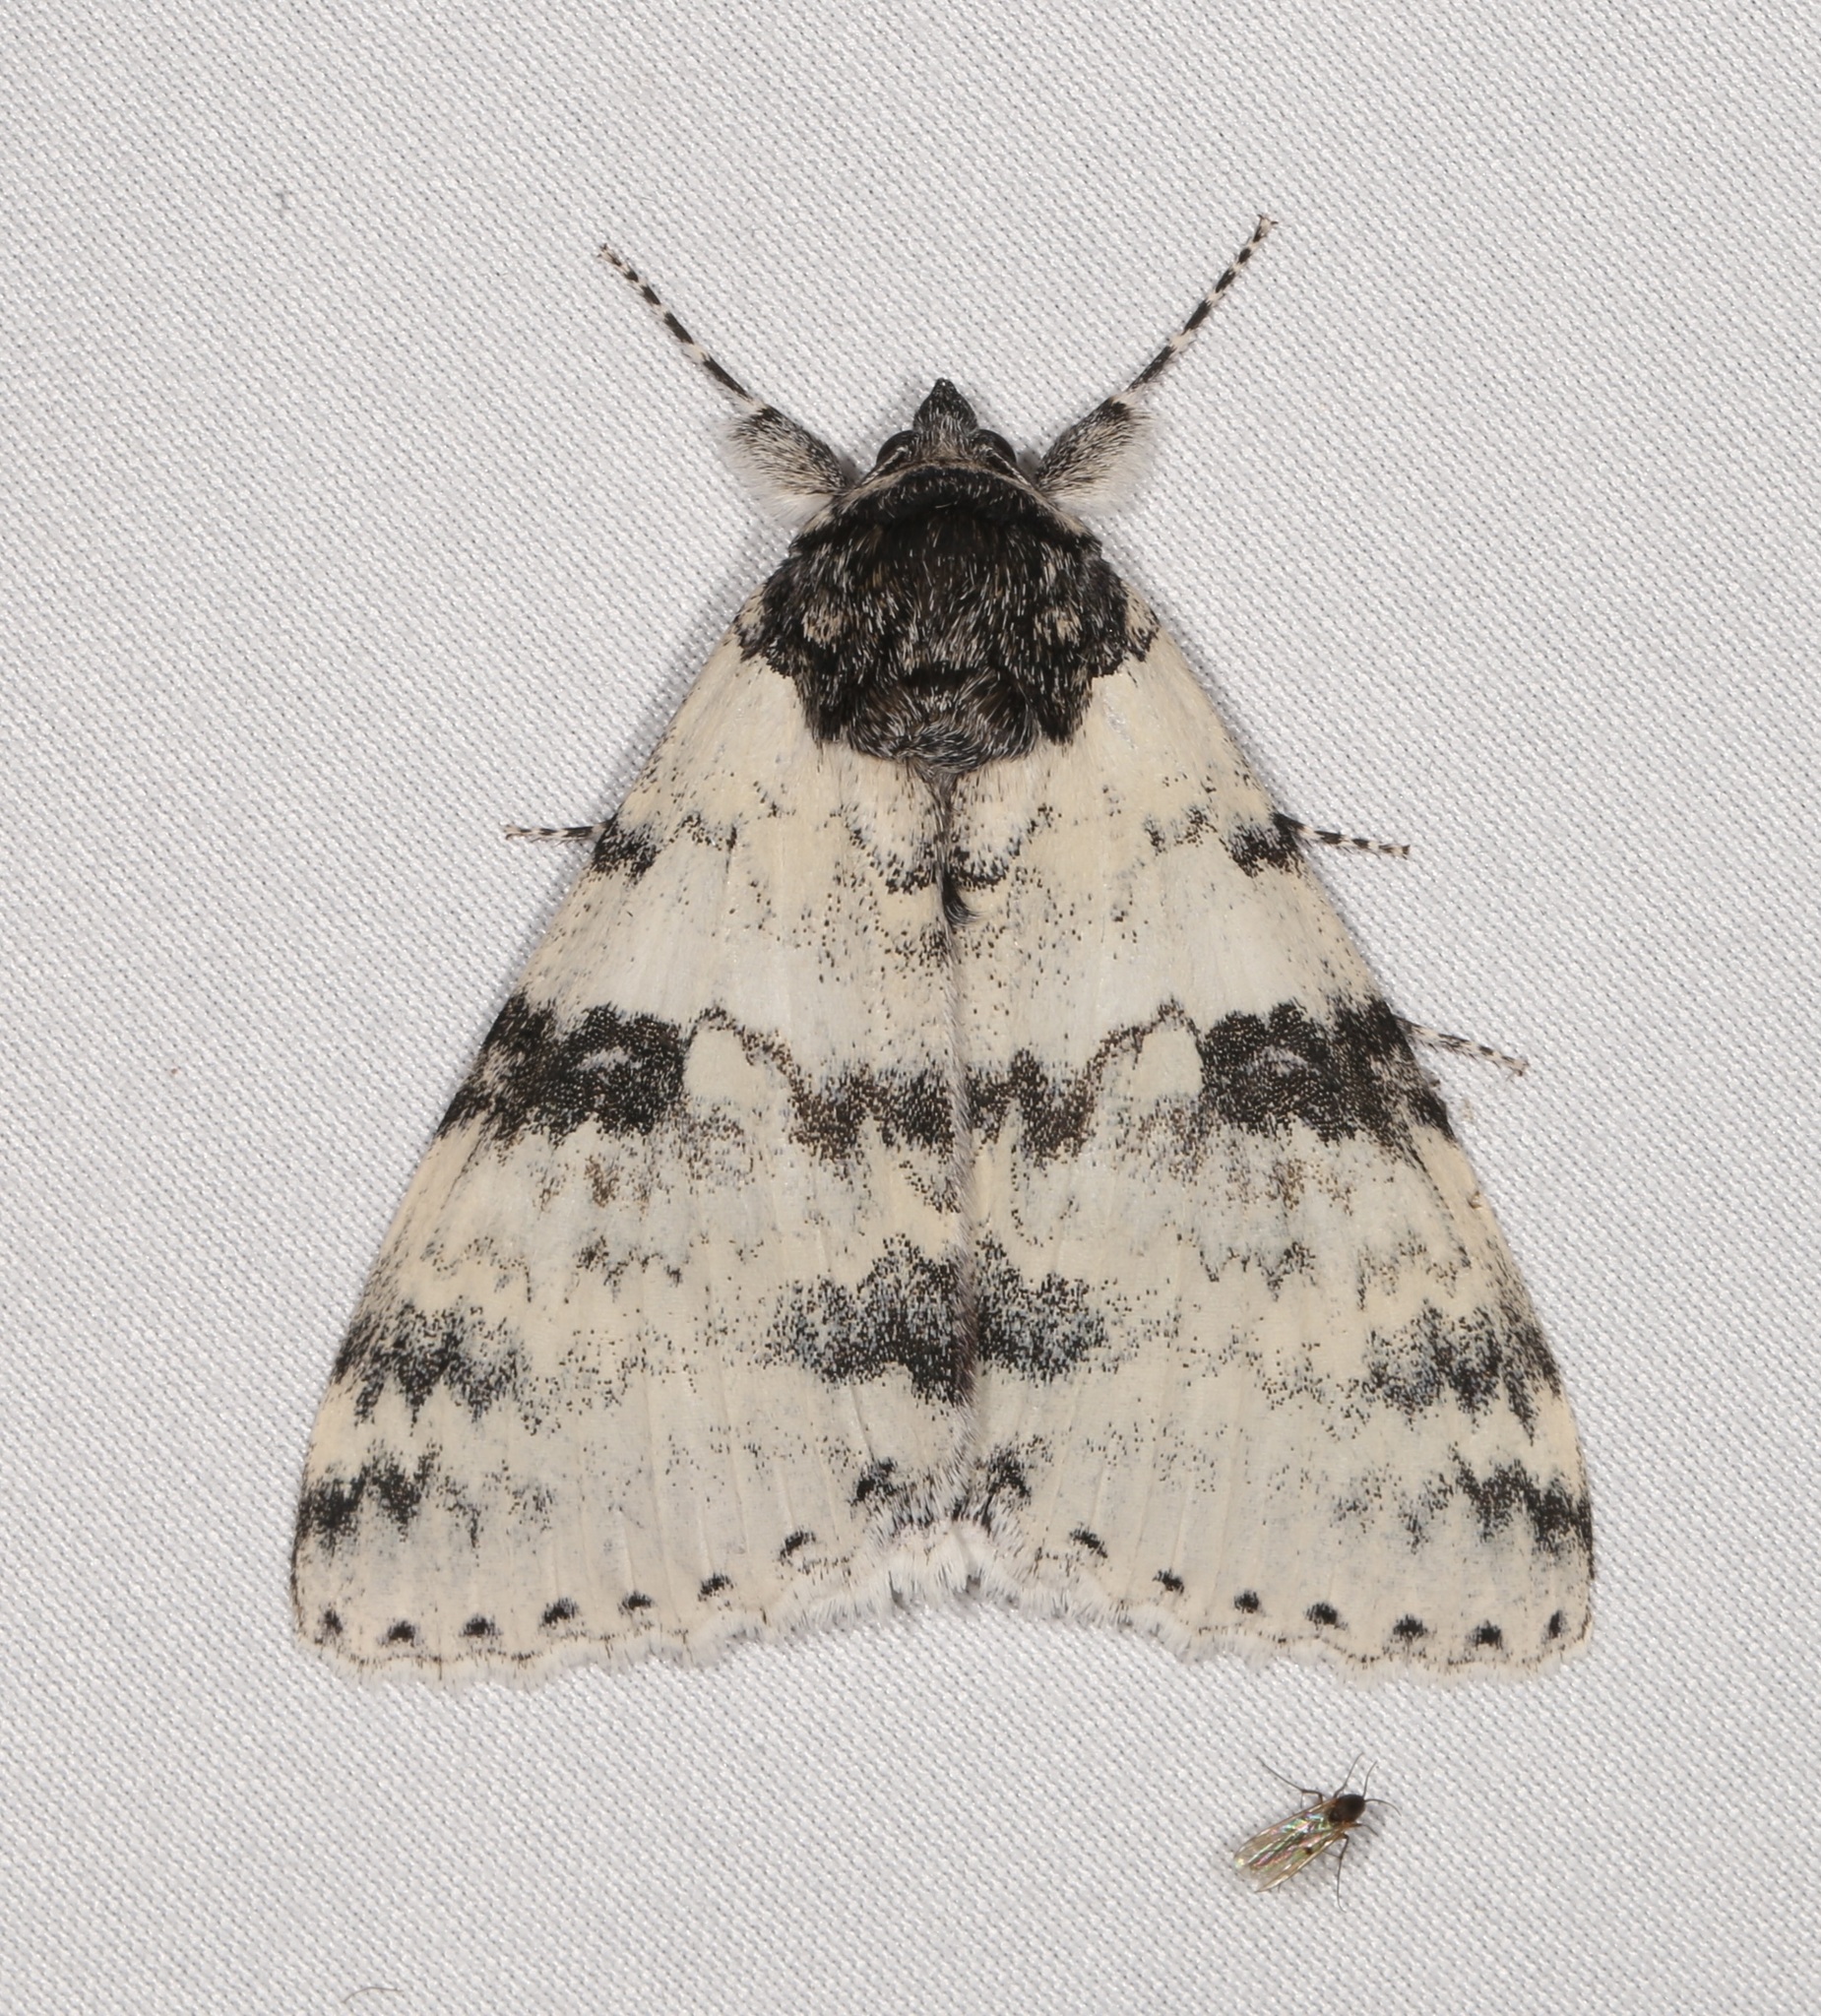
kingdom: Animalia
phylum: Arthropoda
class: Insecta
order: Lepidoptera
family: Erebidae
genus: Catocala
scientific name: Catocala relicta
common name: White underwing
